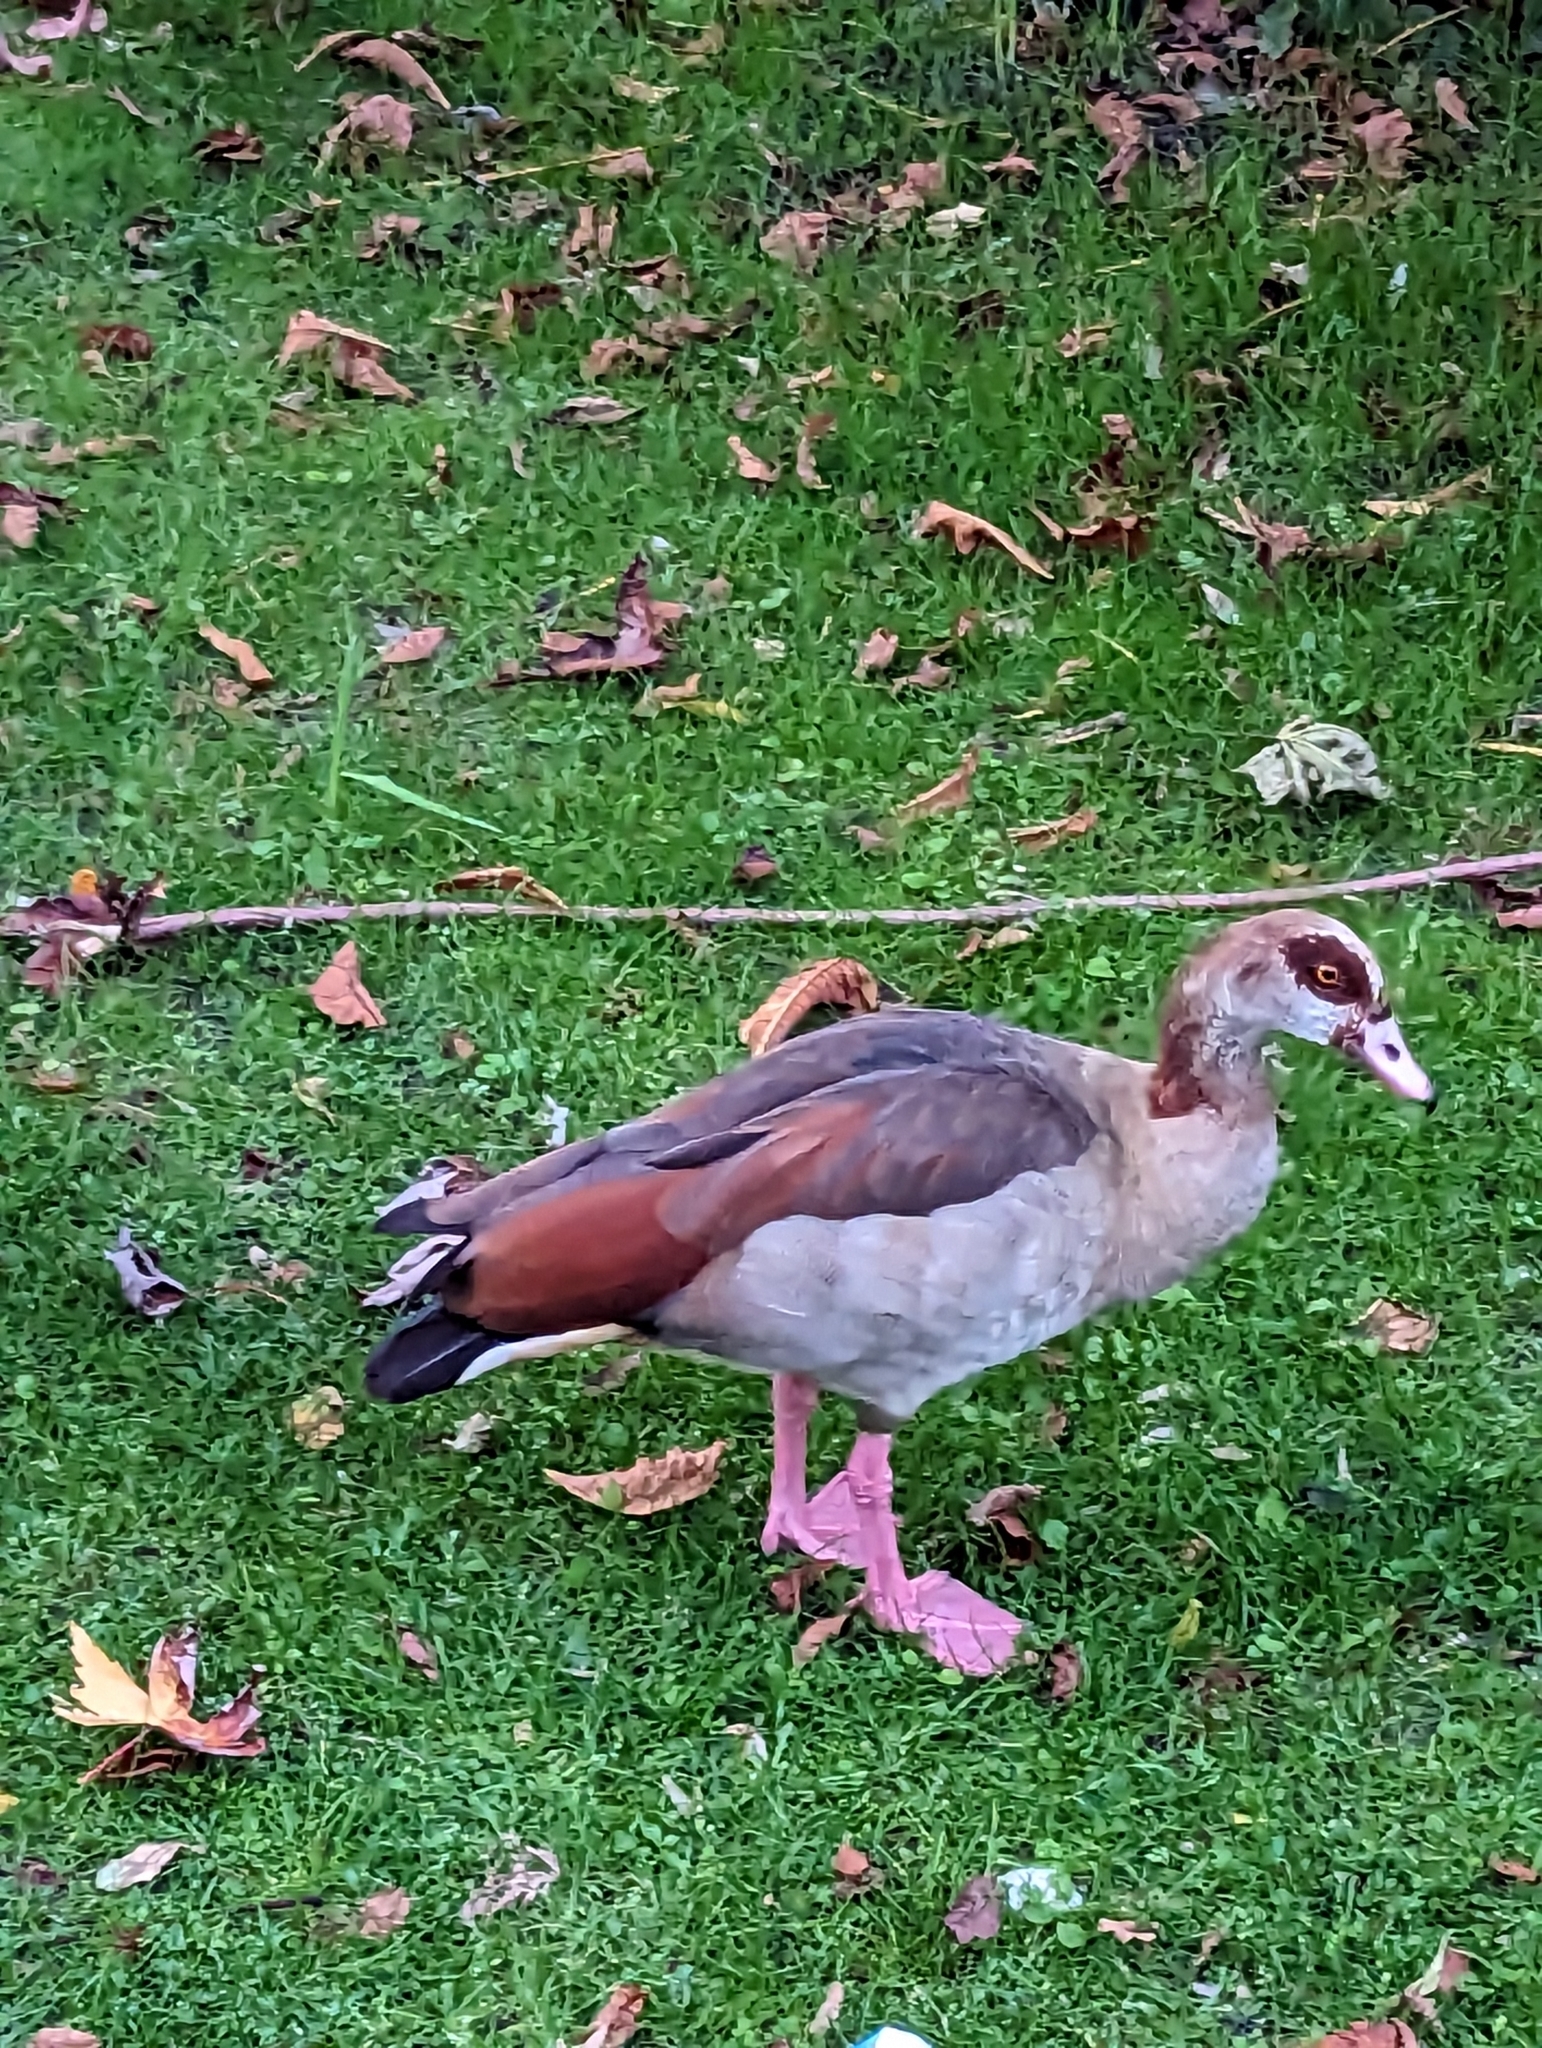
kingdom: Animalia
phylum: Chordata
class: Aves
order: Anseriformes
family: Anatidae
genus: Alopochen
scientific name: Alopochen aegyptiaca
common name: Egyptian goose
